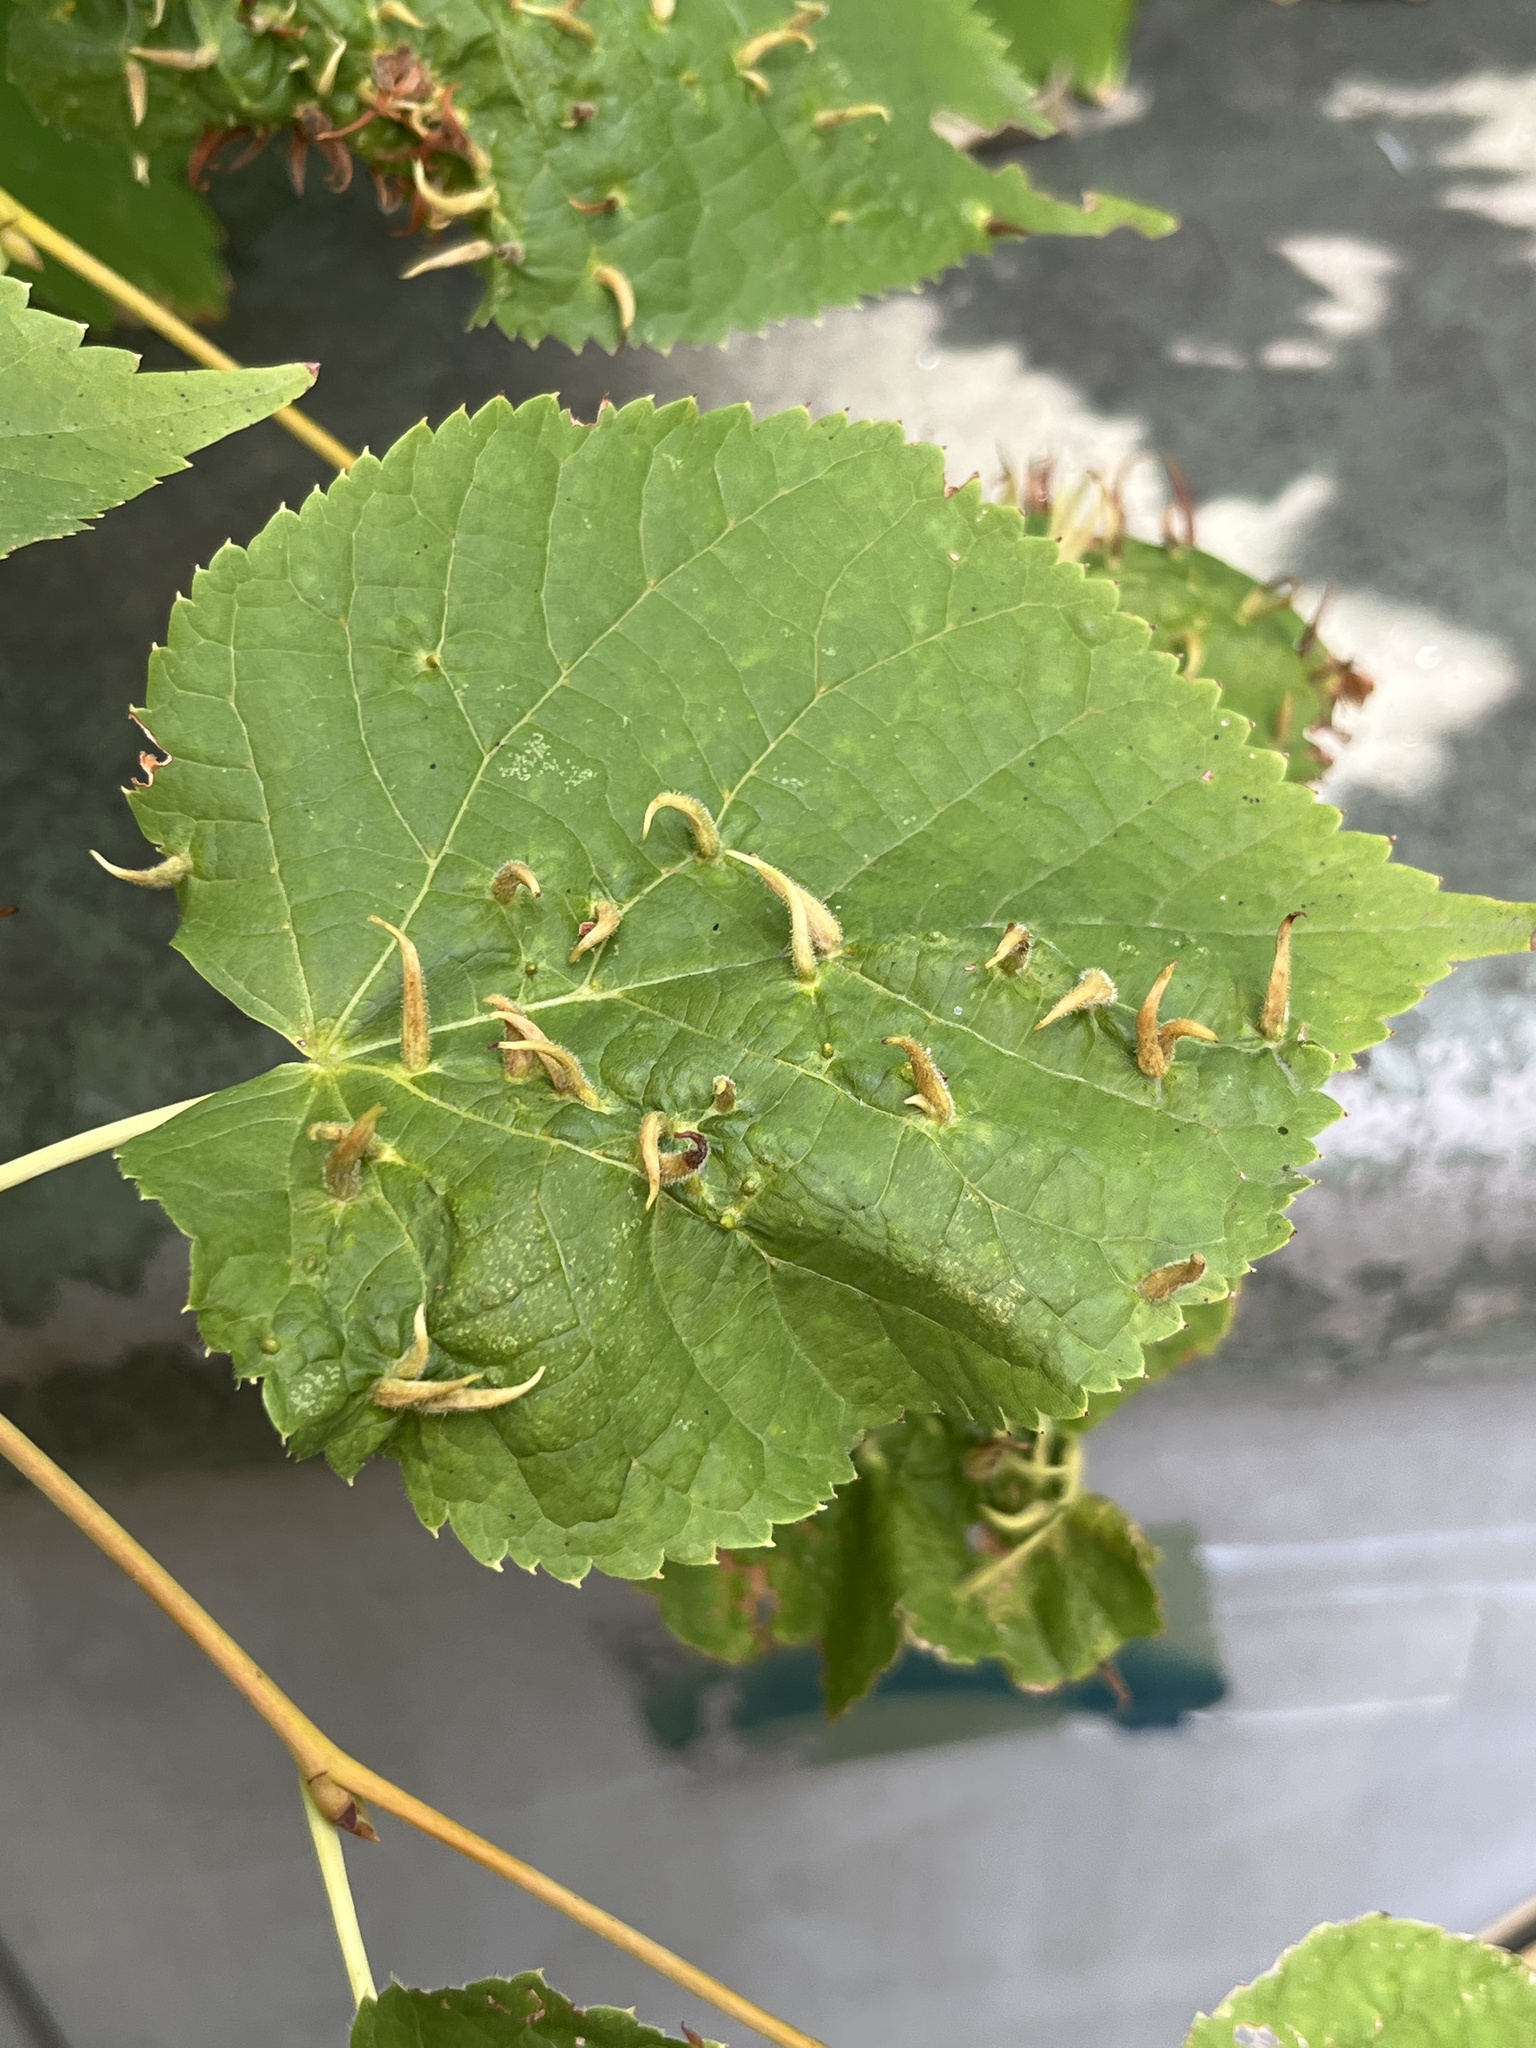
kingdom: Animalia
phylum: Arthropoda
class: Arachnida
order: Trombidiformes
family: Eriophyidae
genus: Eriophyes
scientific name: Eriophyes tiliae
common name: Red nail gall mite
